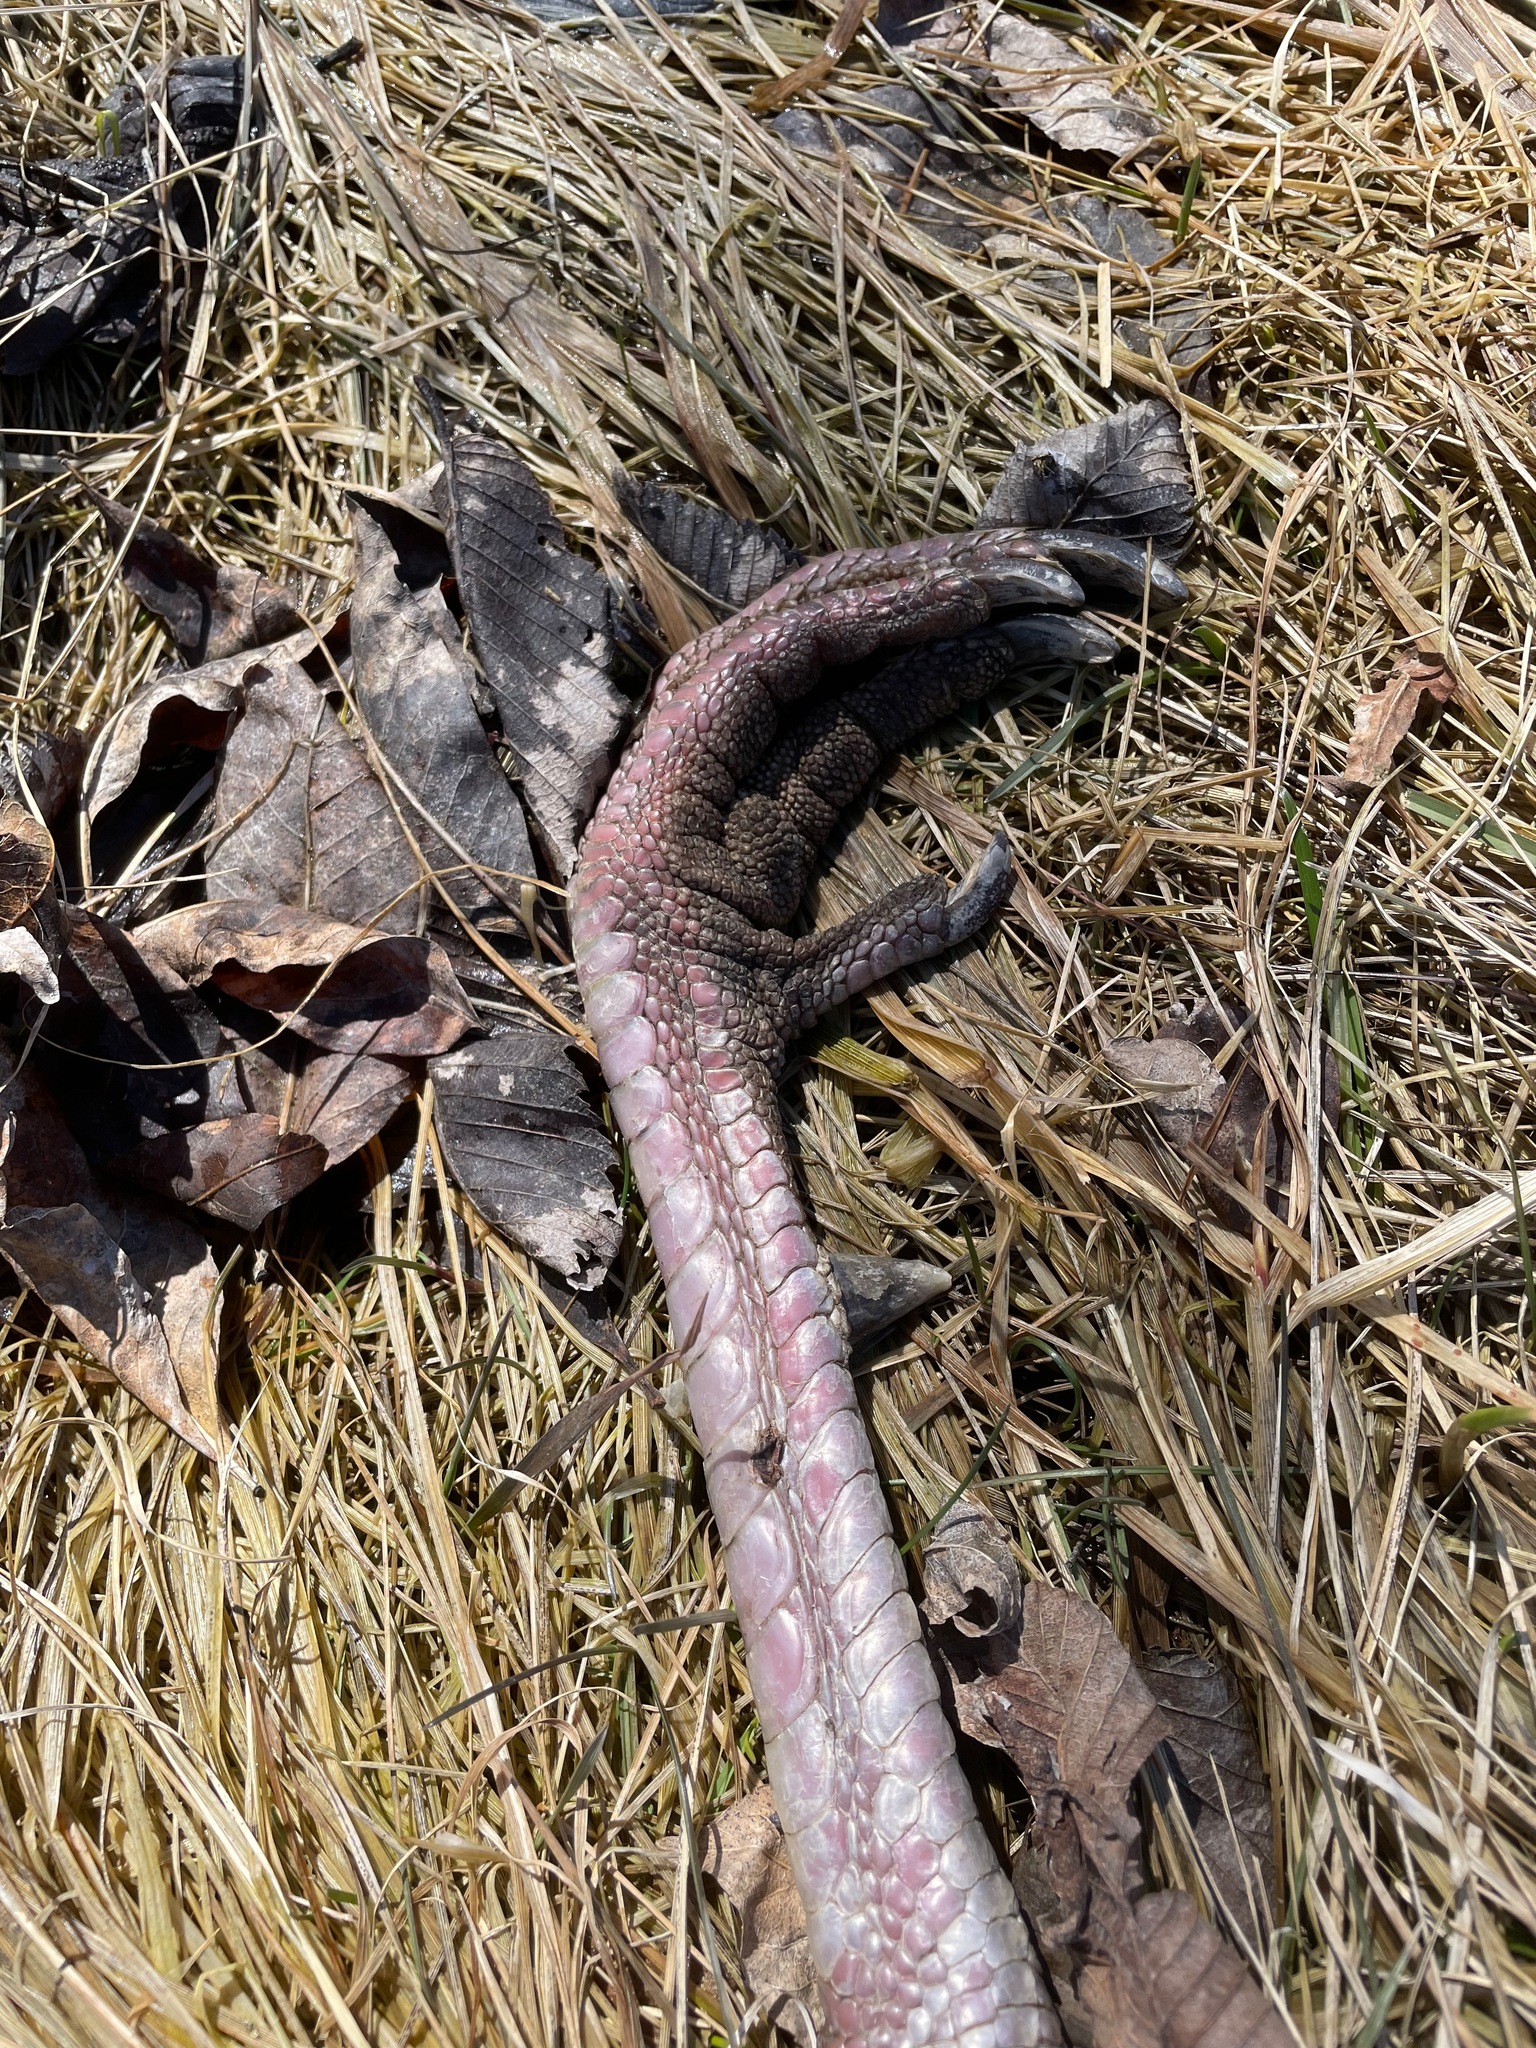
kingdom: Animalia
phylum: Chordata
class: Aves
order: Galliformes
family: Phasianidae
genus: Meleagris
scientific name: Meleagris gallopavo
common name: Wild turkey
